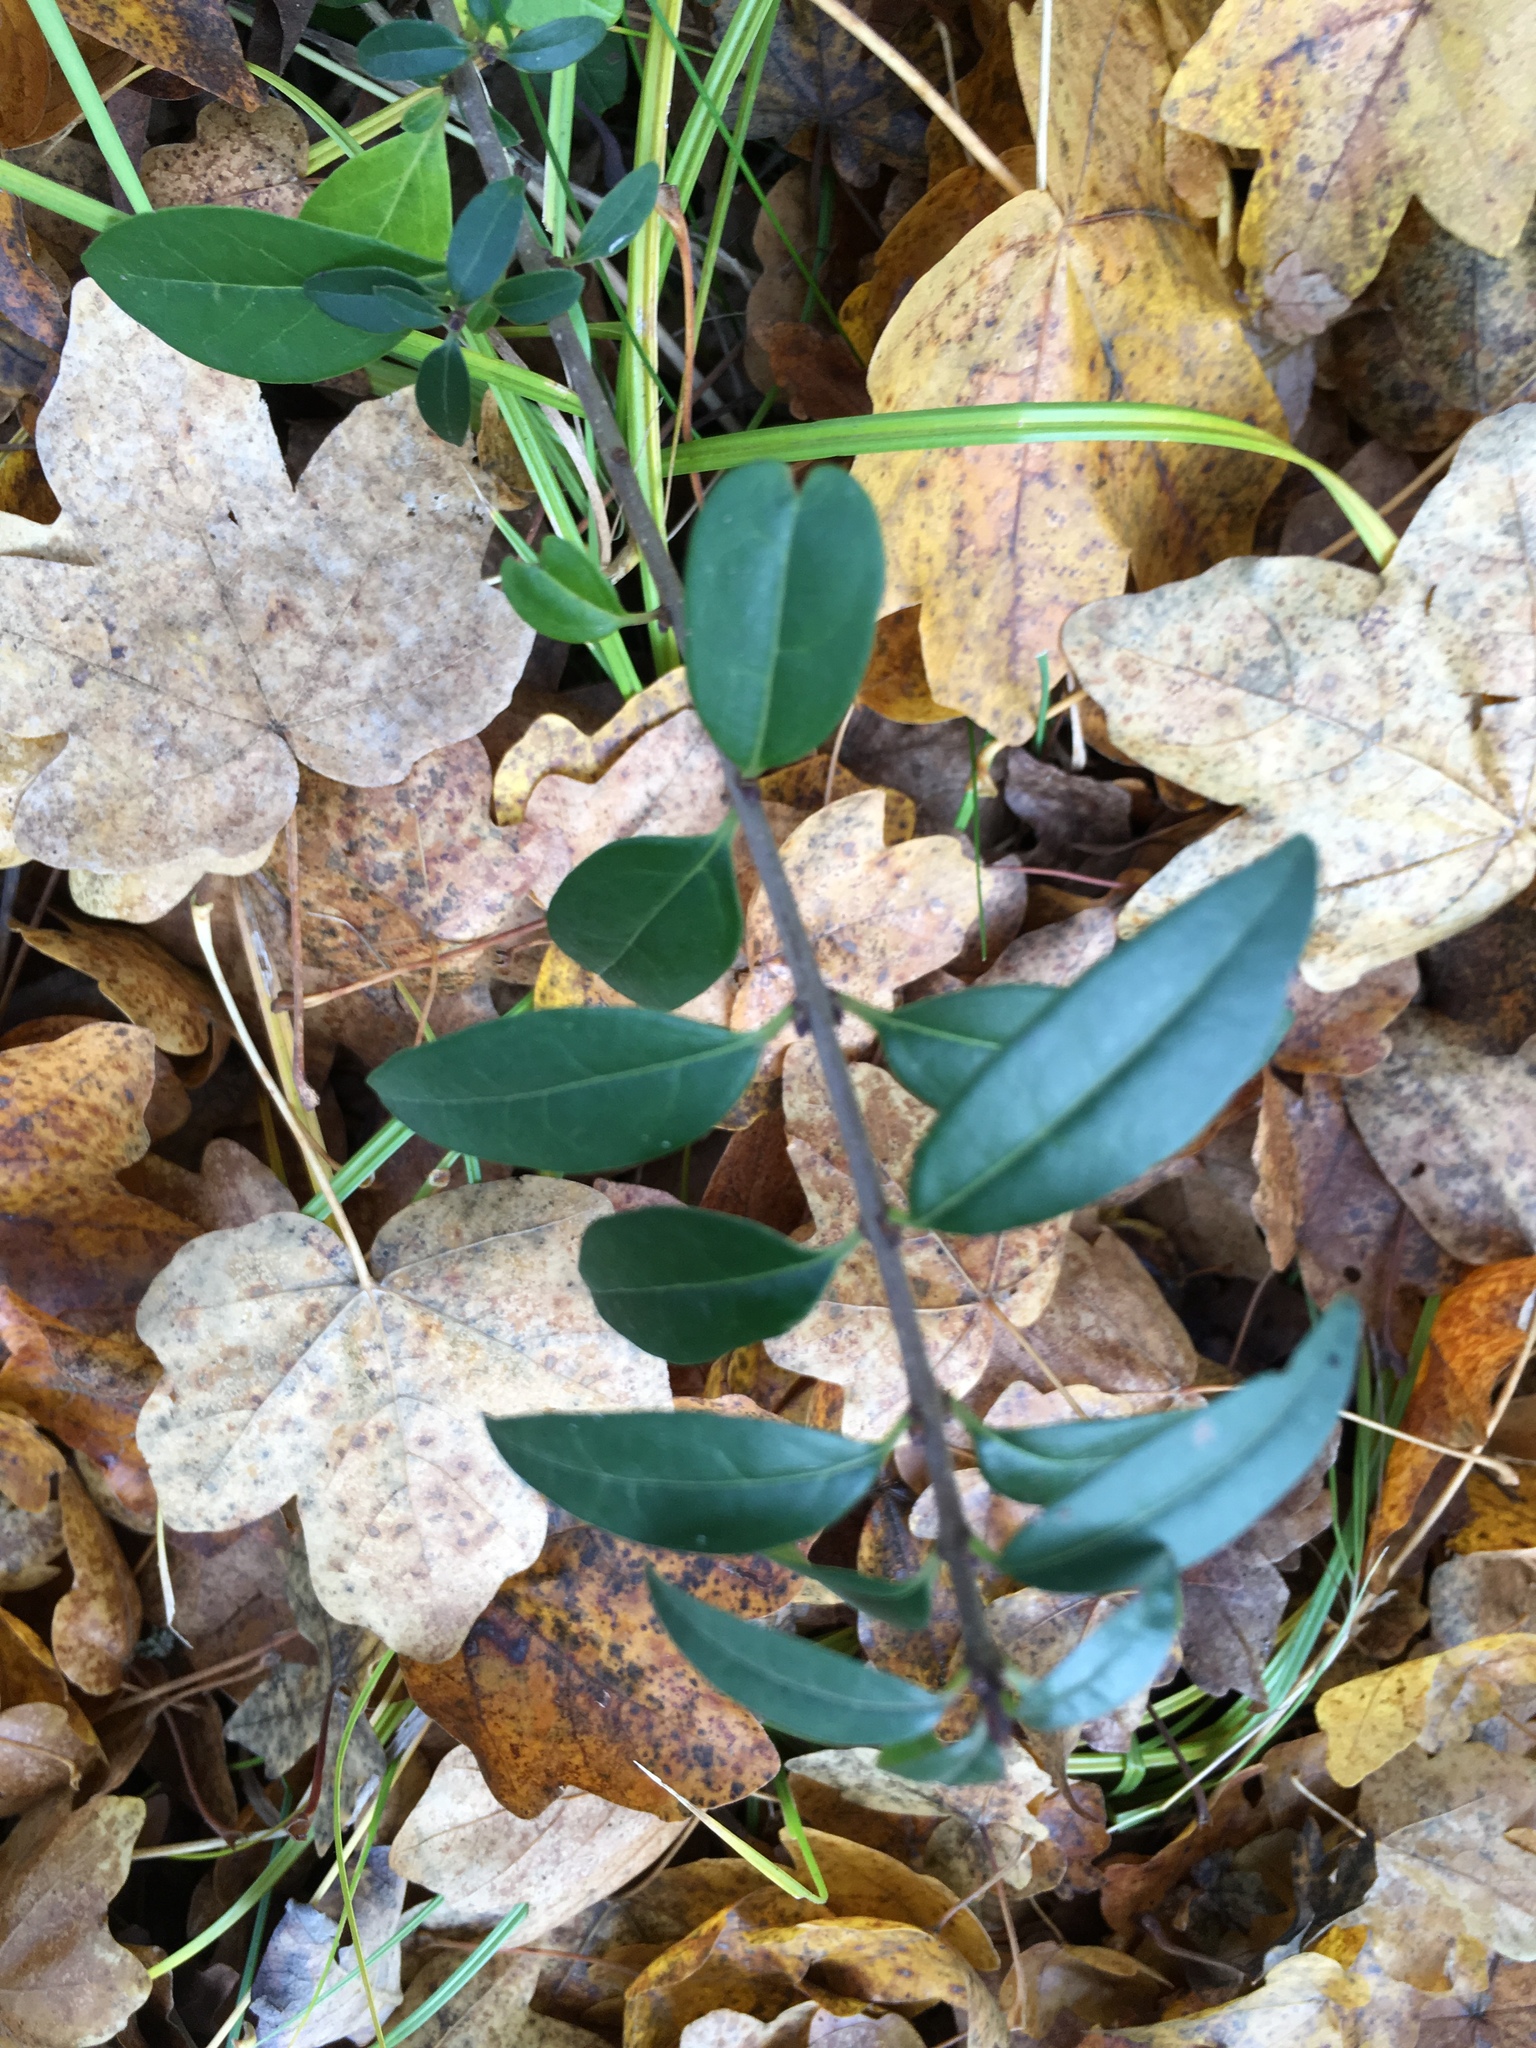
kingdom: Plantae
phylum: Tracheophyta
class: Magnoliopsida
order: Lamiales
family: Oleaceae
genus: Ligustrum
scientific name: Ligustrum vulgare
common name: Wild privet
